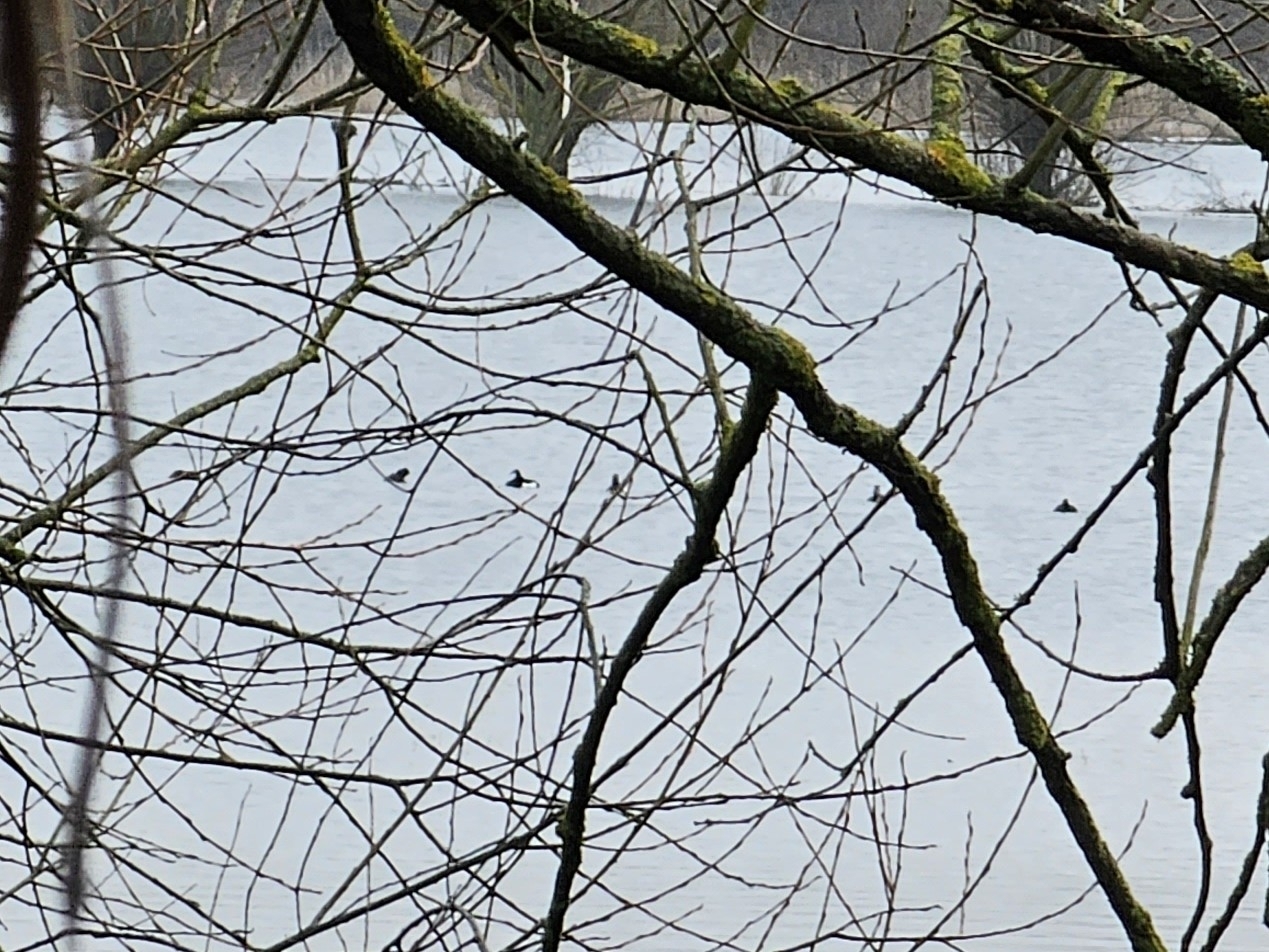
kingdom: Animalia
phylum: Chordata
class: Aves
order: Anseriformes
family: Anatidae
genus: Aythya
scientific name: Aythya fuligula
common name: Tufted duck
